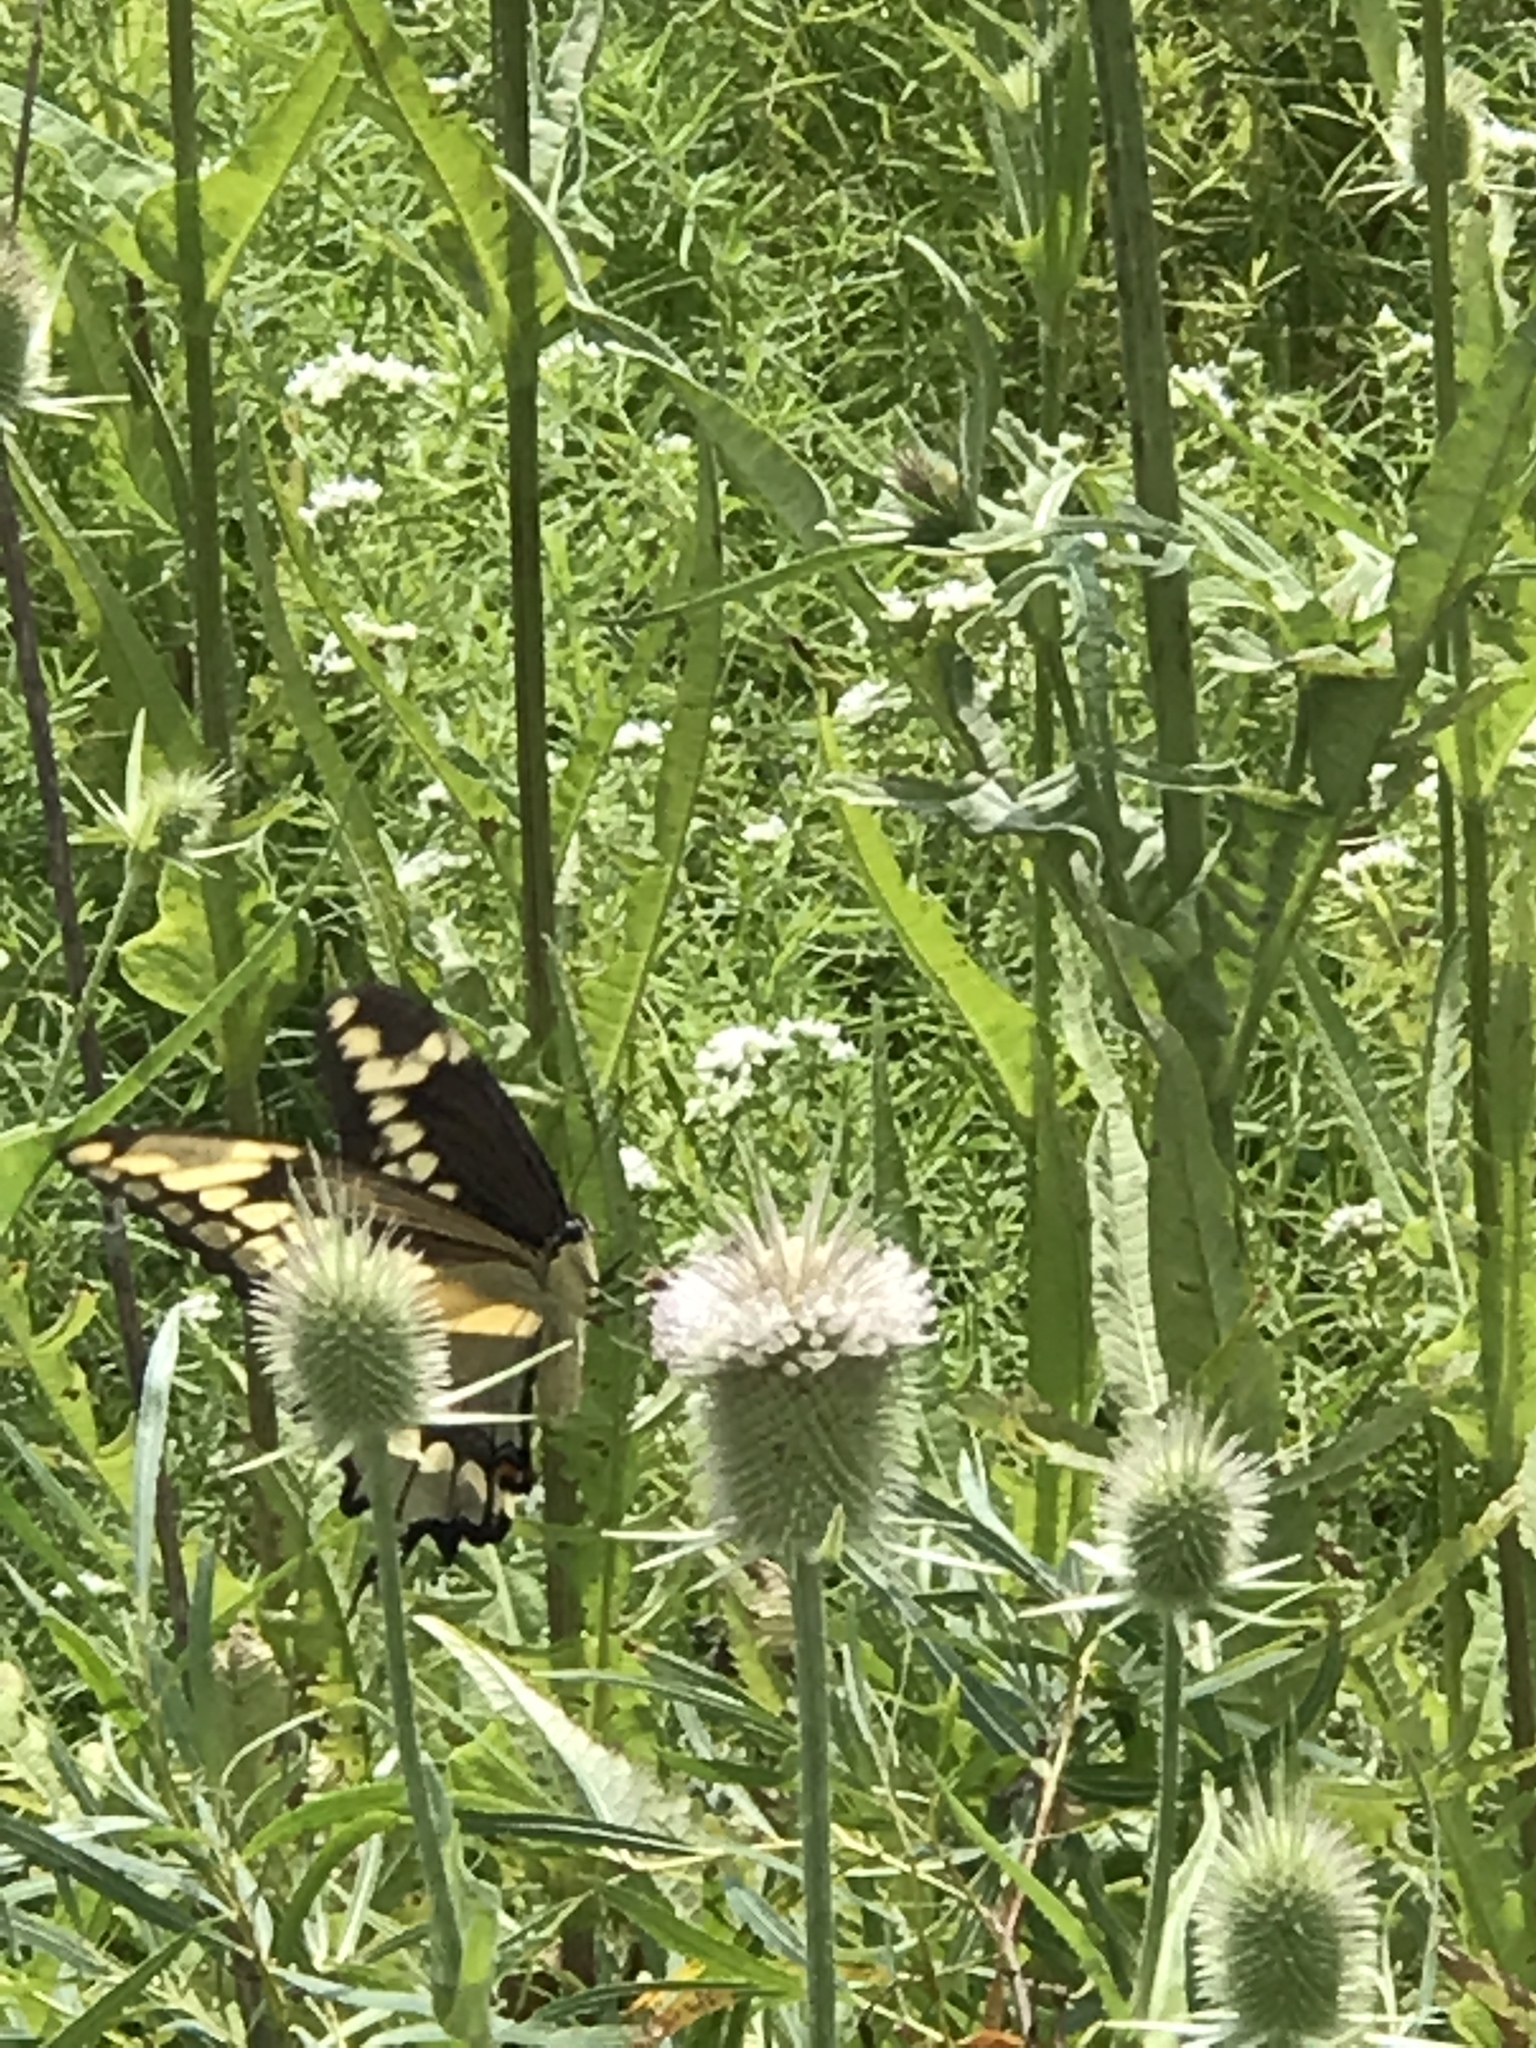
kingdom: Animalia
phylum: Arthropoda
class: Insecta
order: Lepidoptera
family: Papilionidae
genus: Papilio
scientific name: Papilio cresphontes
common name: Giant swallowtail
